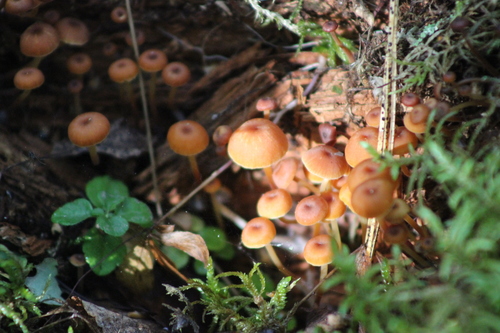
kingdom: Fungi
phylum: Basidiomycota
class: Agaricomycetes
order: Agaricales
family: Mycenaceae
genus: Xeromphalina
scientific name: Xeromphalina campanella
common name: Pinewood gingertail
